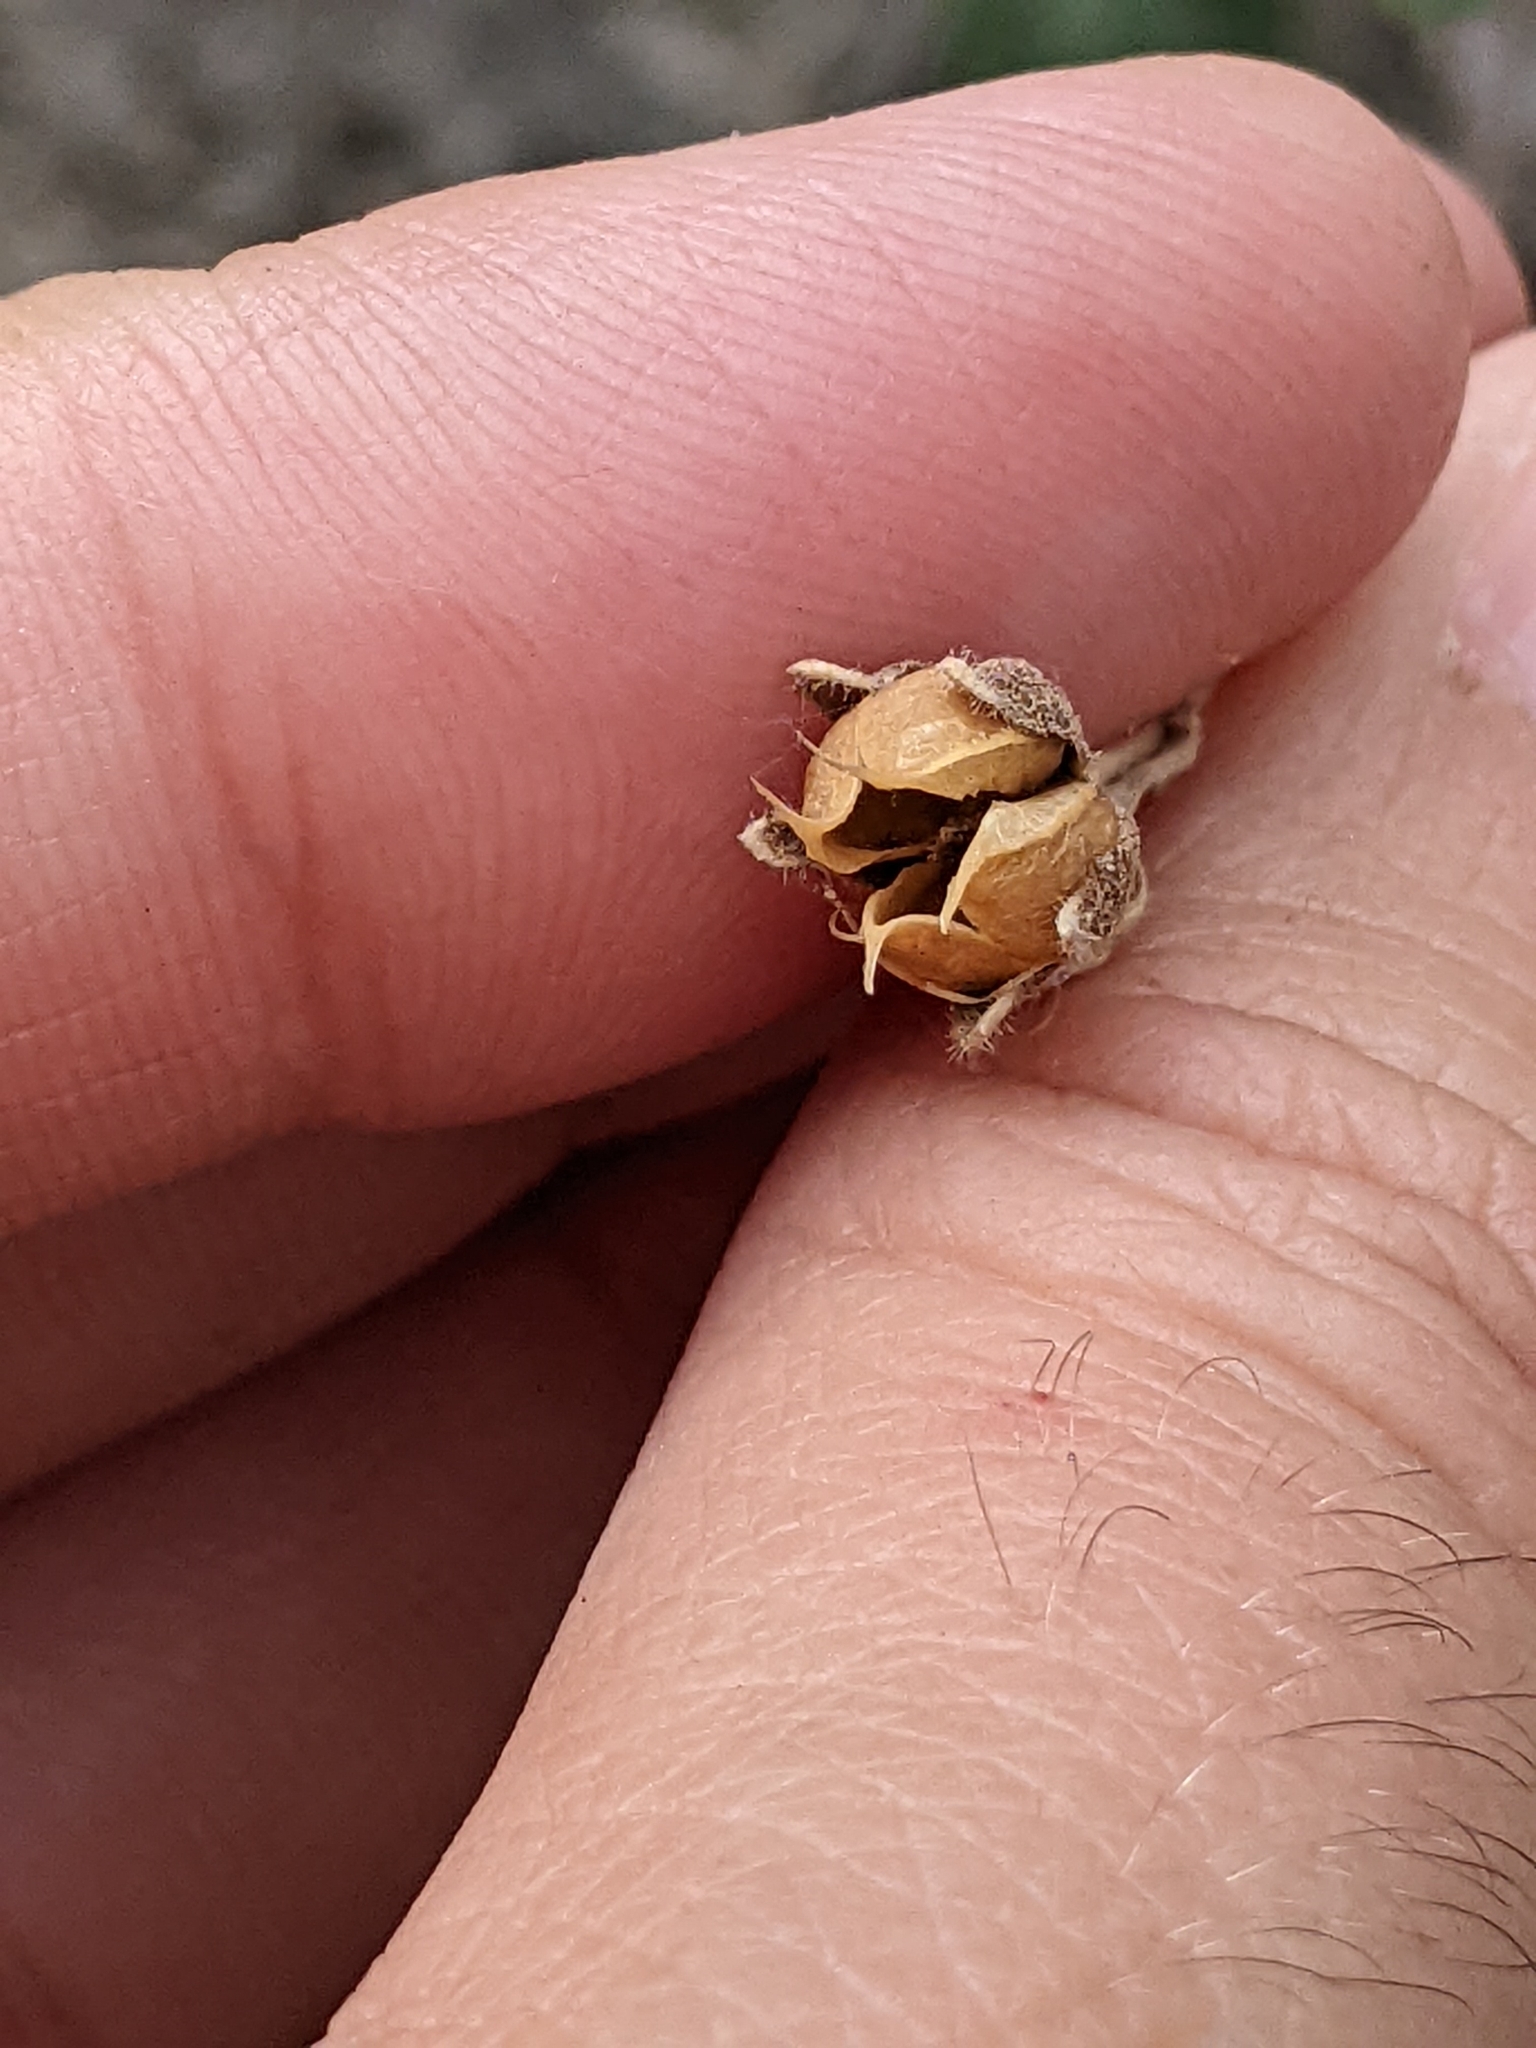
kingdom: Plantae
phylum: Tracheophyta
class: Magnoliopsida
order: Lamiales
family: Plantaginaceae
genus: Penstemon
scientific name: Penstemon baccharifolius
